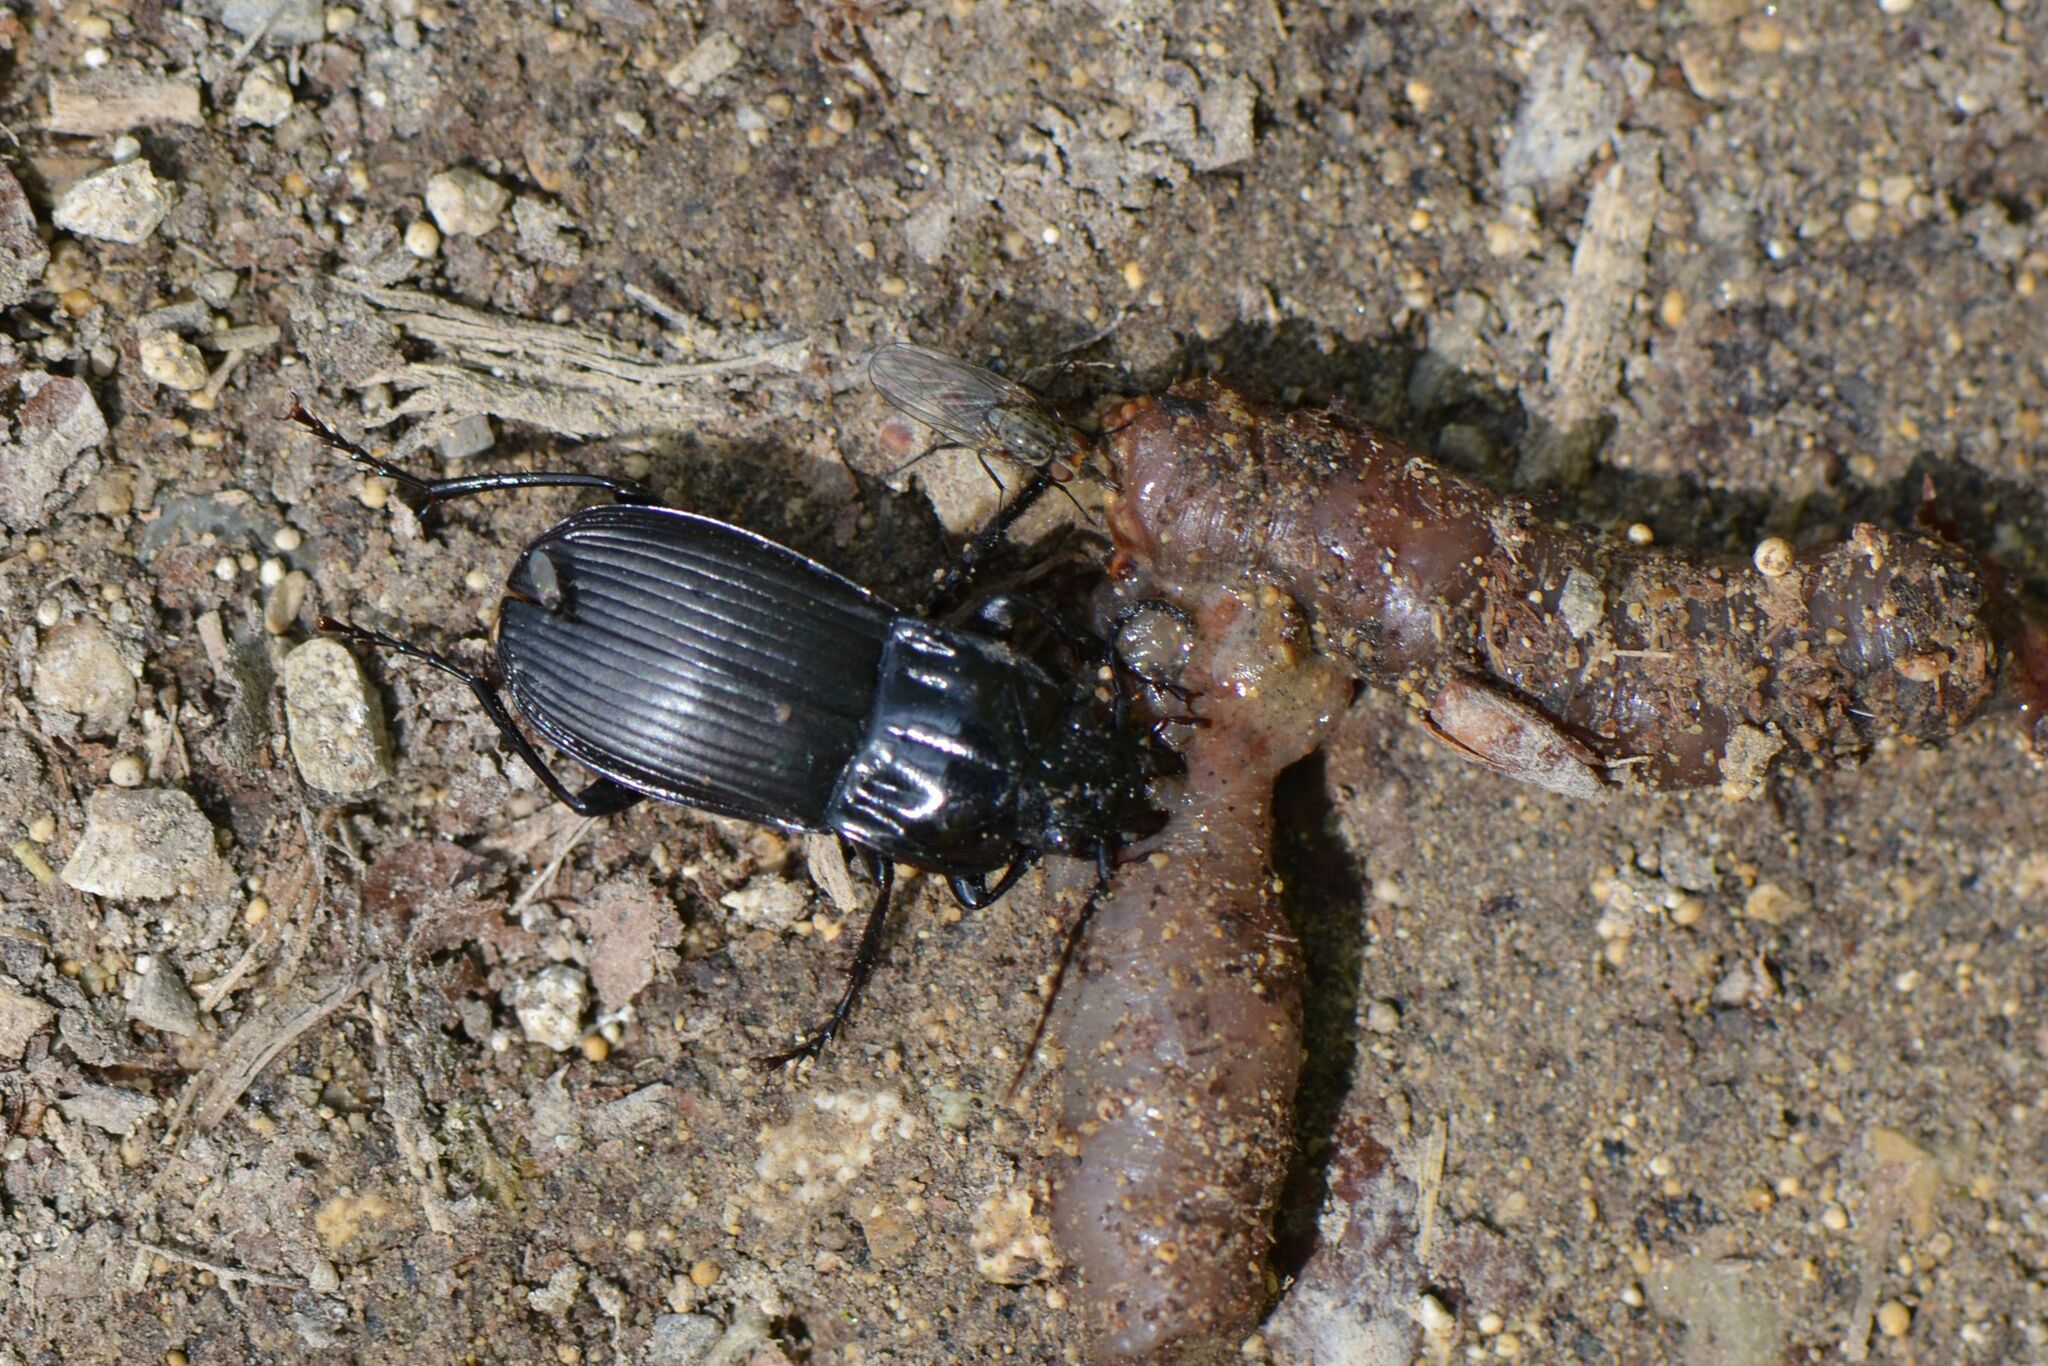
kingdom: Animalia
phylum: Arthropoda
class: Insecta
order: Coleoptera
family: Carabidae
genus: Abax
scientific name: Abax parallelepipedus
